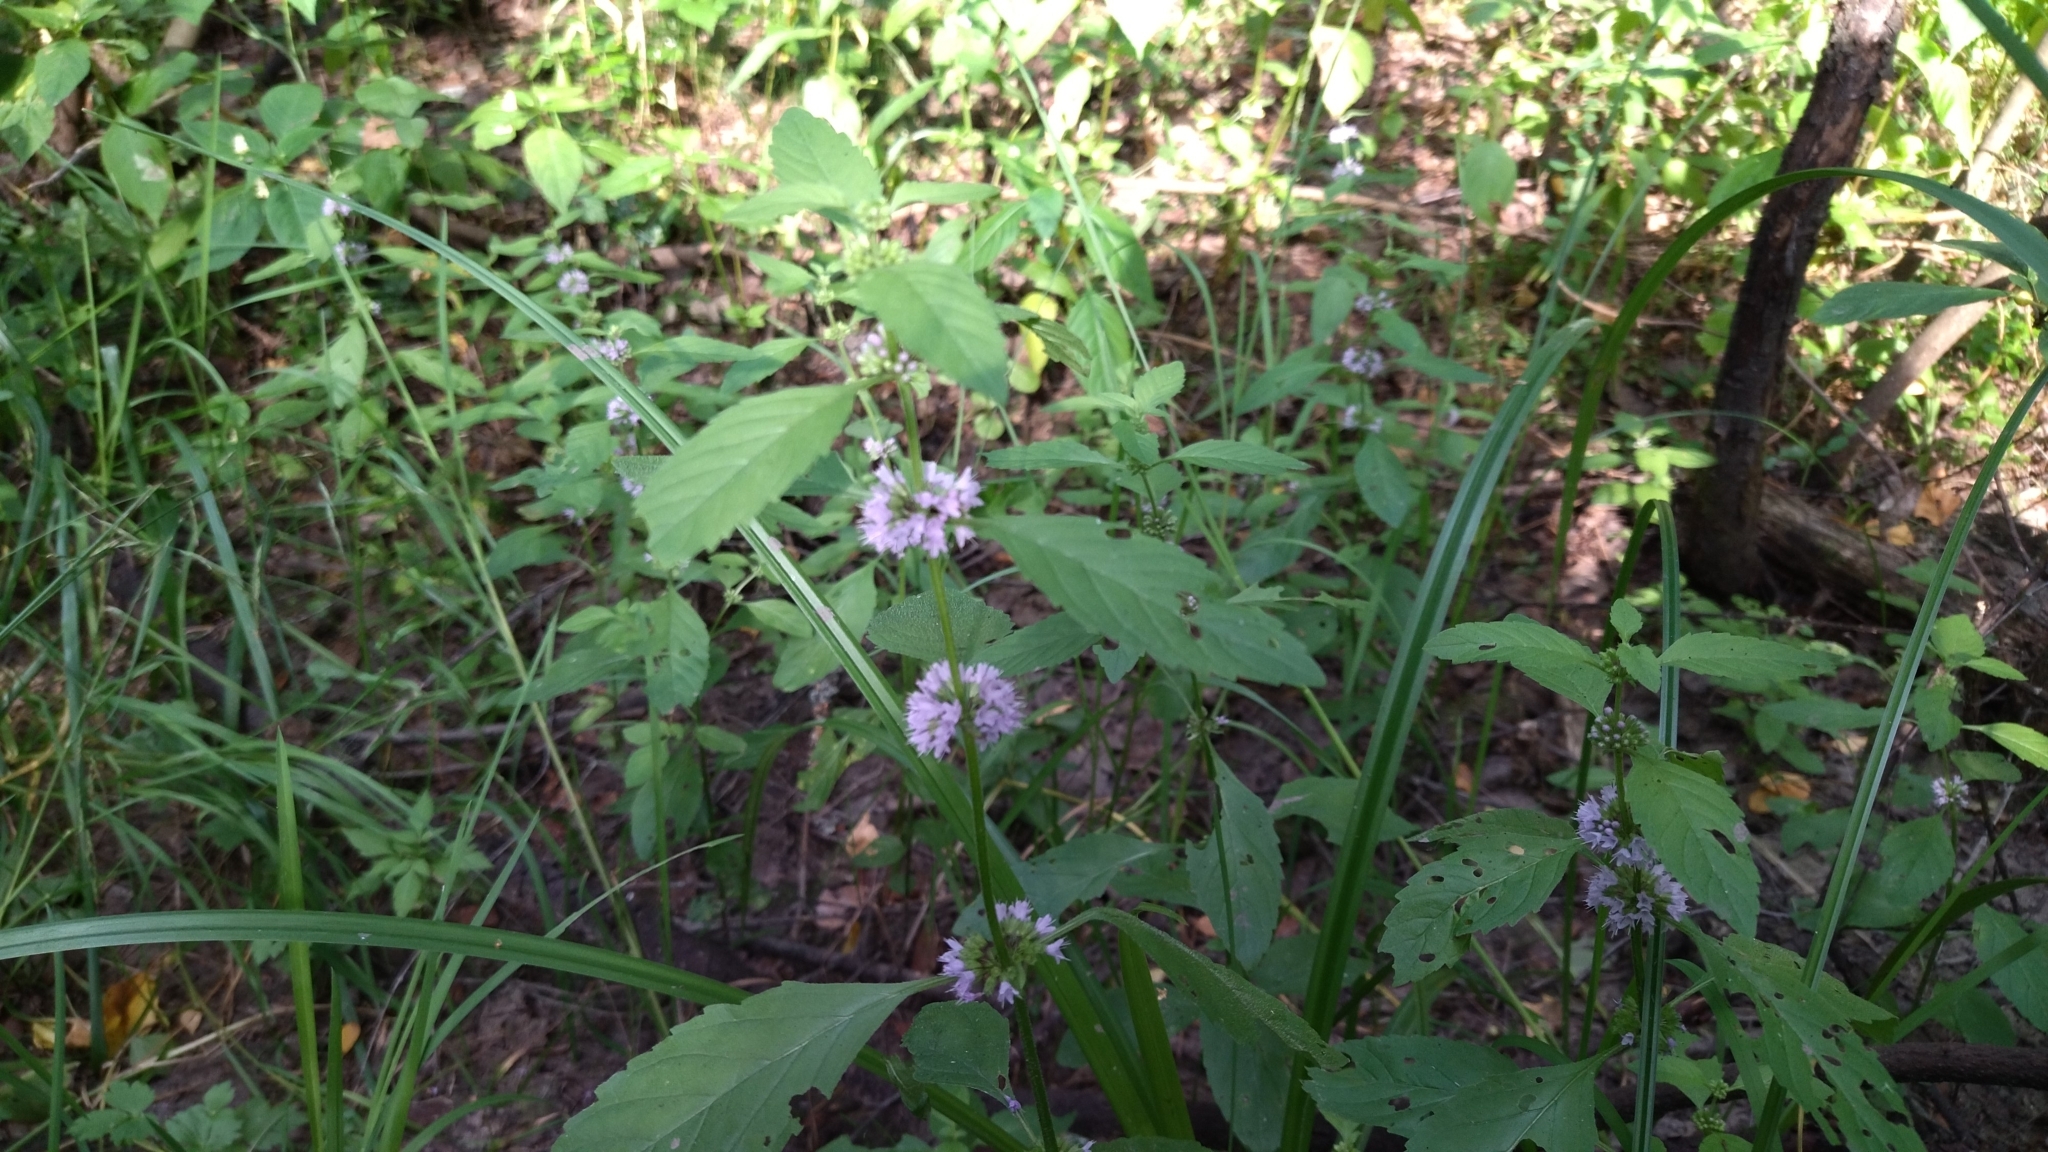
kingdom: Plantae
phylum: Tracheophyta
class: Magnoliopsida
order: Lamiales
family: Lamiaceae
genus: Mentha
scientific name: Mentha arvensis
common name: Corn mint
